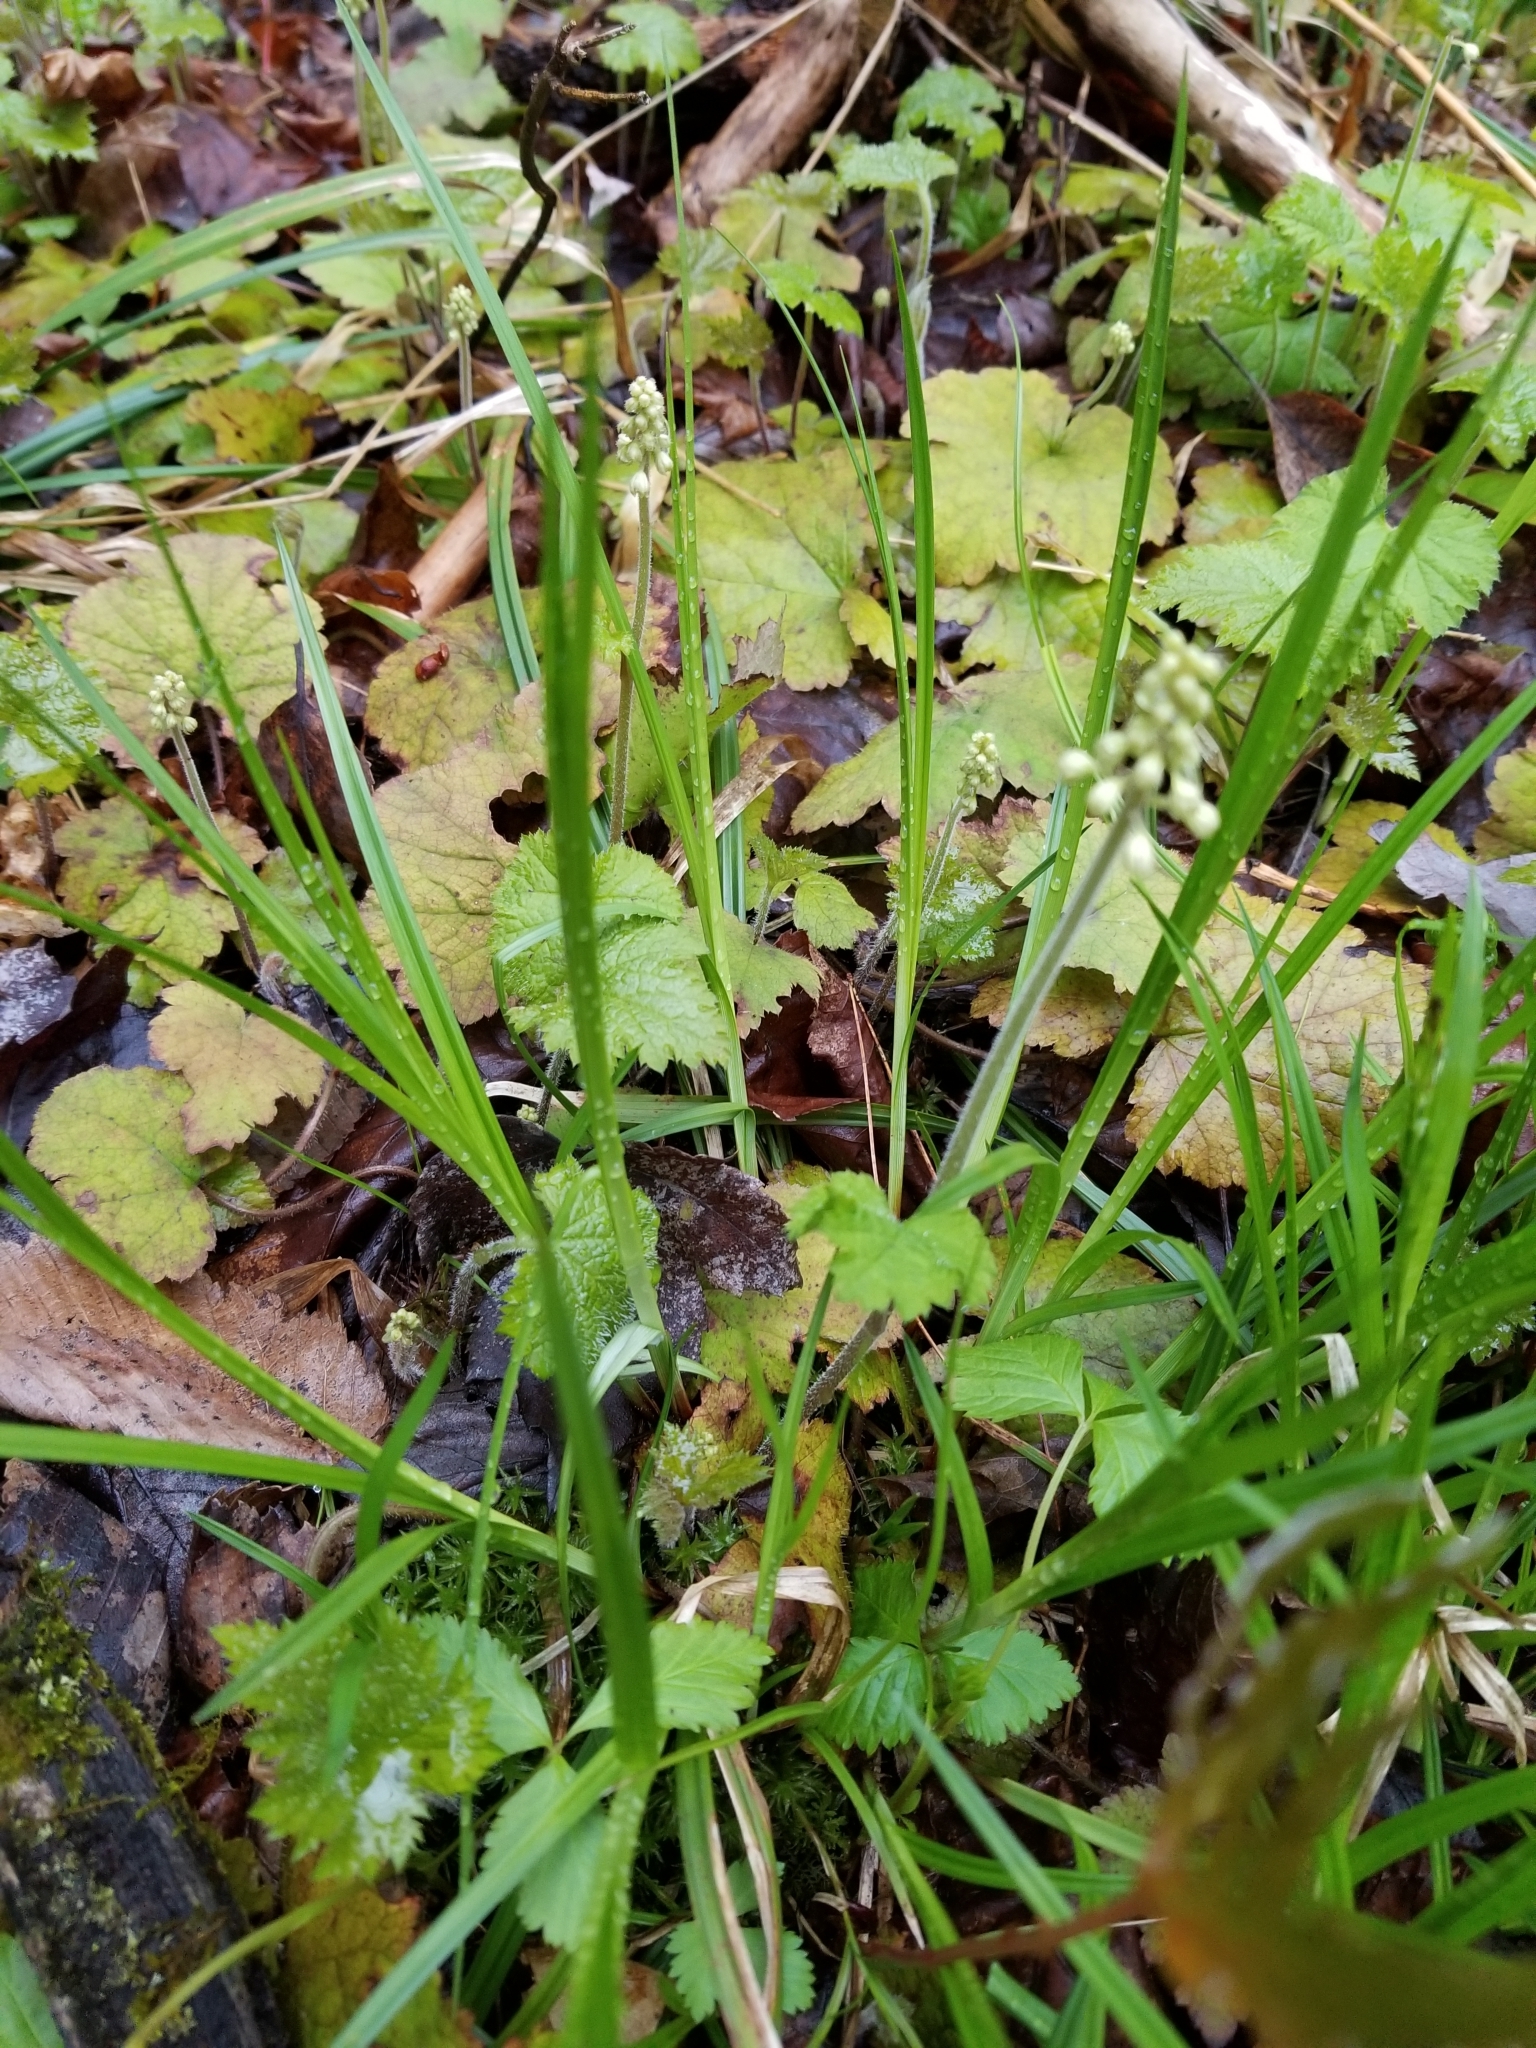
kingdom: Plantae
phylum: Tracheophyta
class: Magnoliopsida
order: Saxifragales
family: Saxifragaceae
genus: Tiarella
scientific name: Tiarella stolonifera
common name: Stoloniferous foamflower
